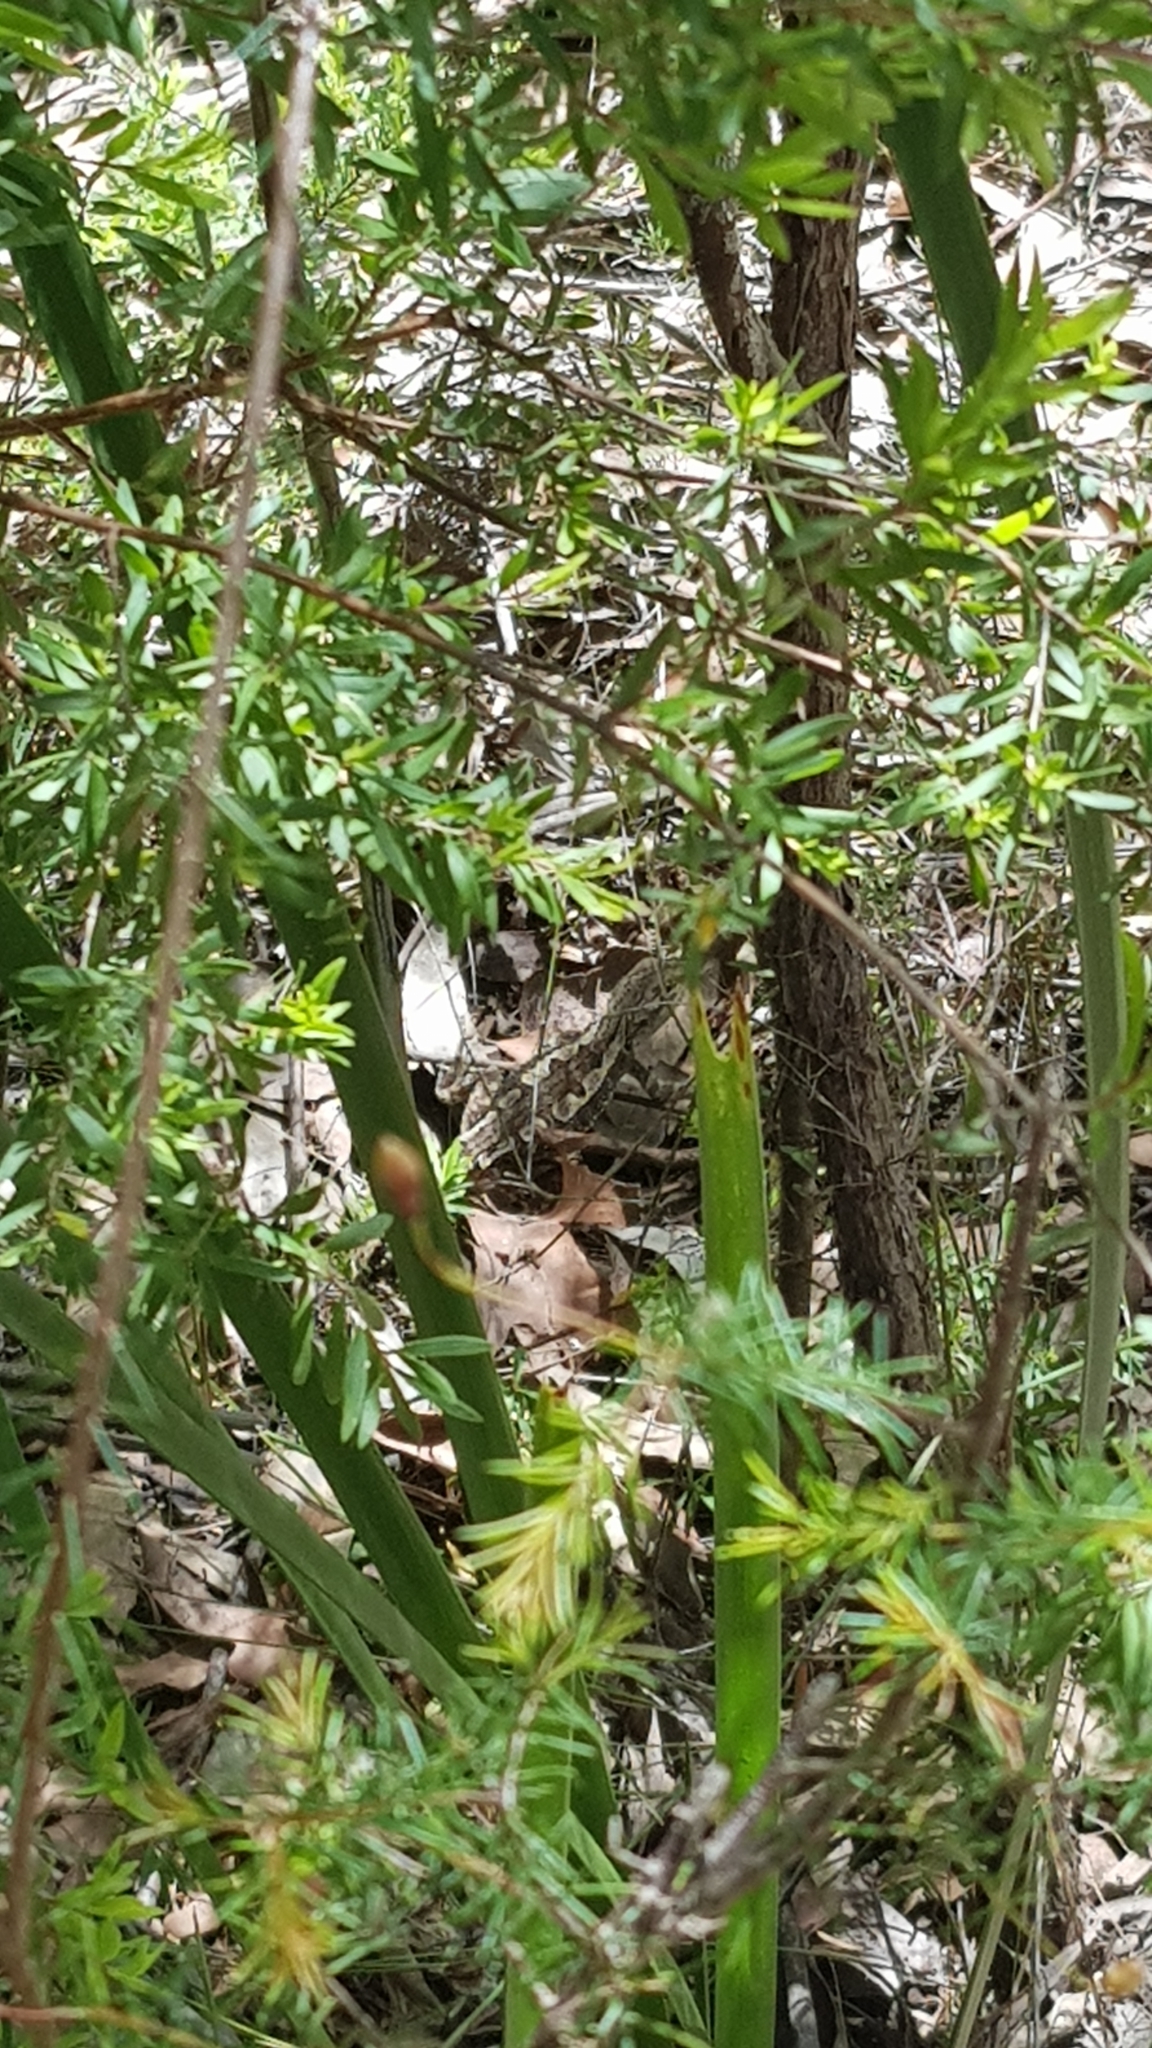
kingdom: Animalia
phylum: Chordata
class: Squamata
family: Agamidae
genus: Amphibolurus
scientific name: Amphibolurus muricatus
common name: Jacky lizard
